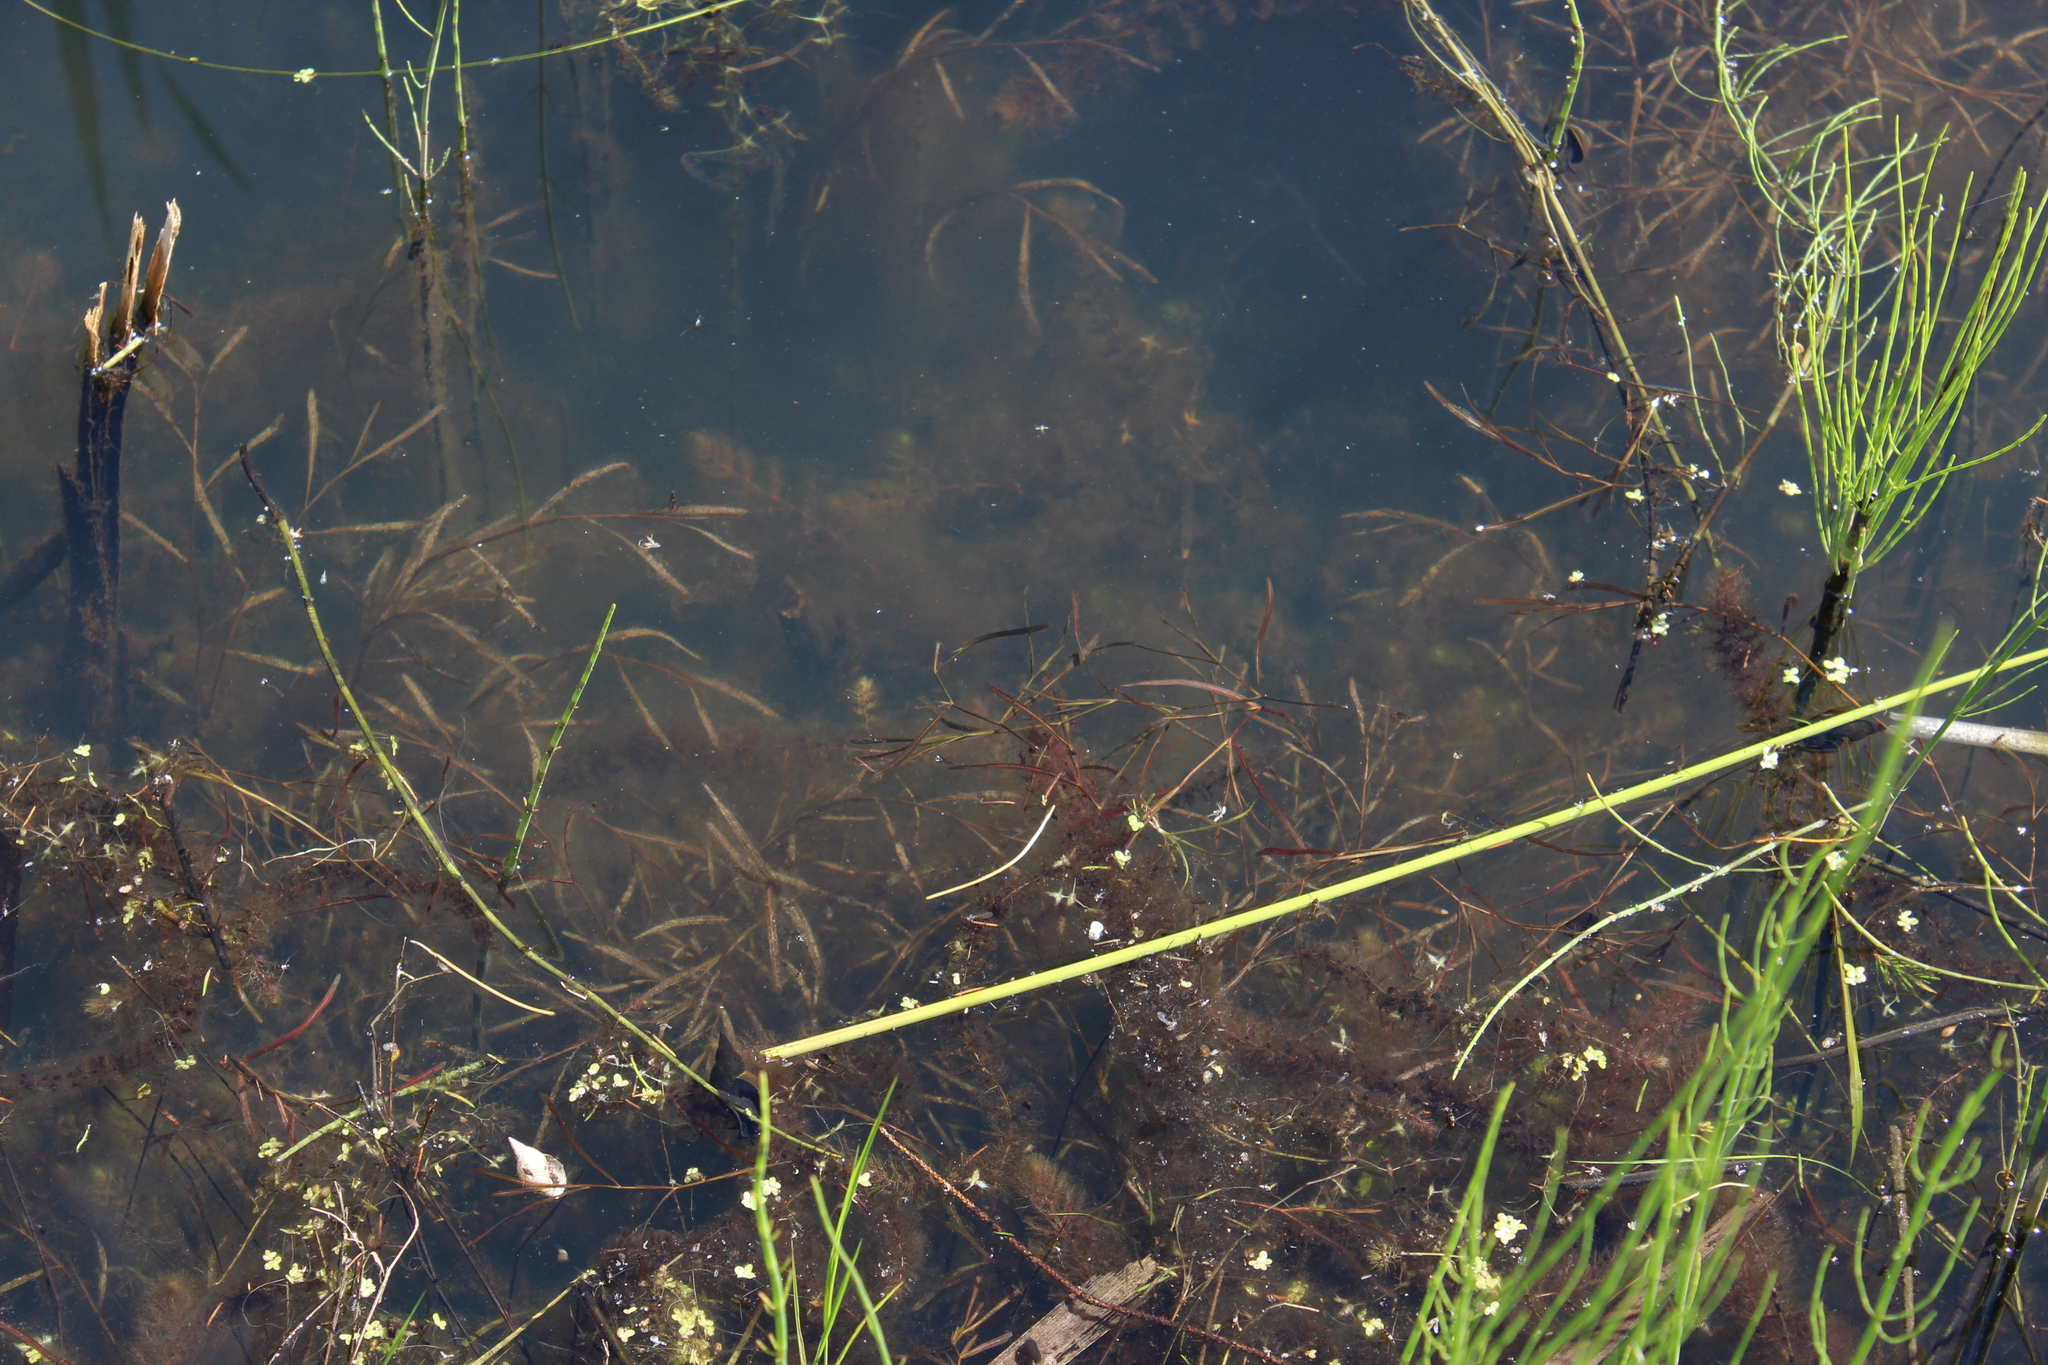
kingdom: Plantae
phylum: Tracheophyta
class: Liliopsida
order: Alismatales
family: Potamogetonaceae
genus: Potamogeton
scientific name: Potamogeton compressus
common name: Grass-wrack pondweed
